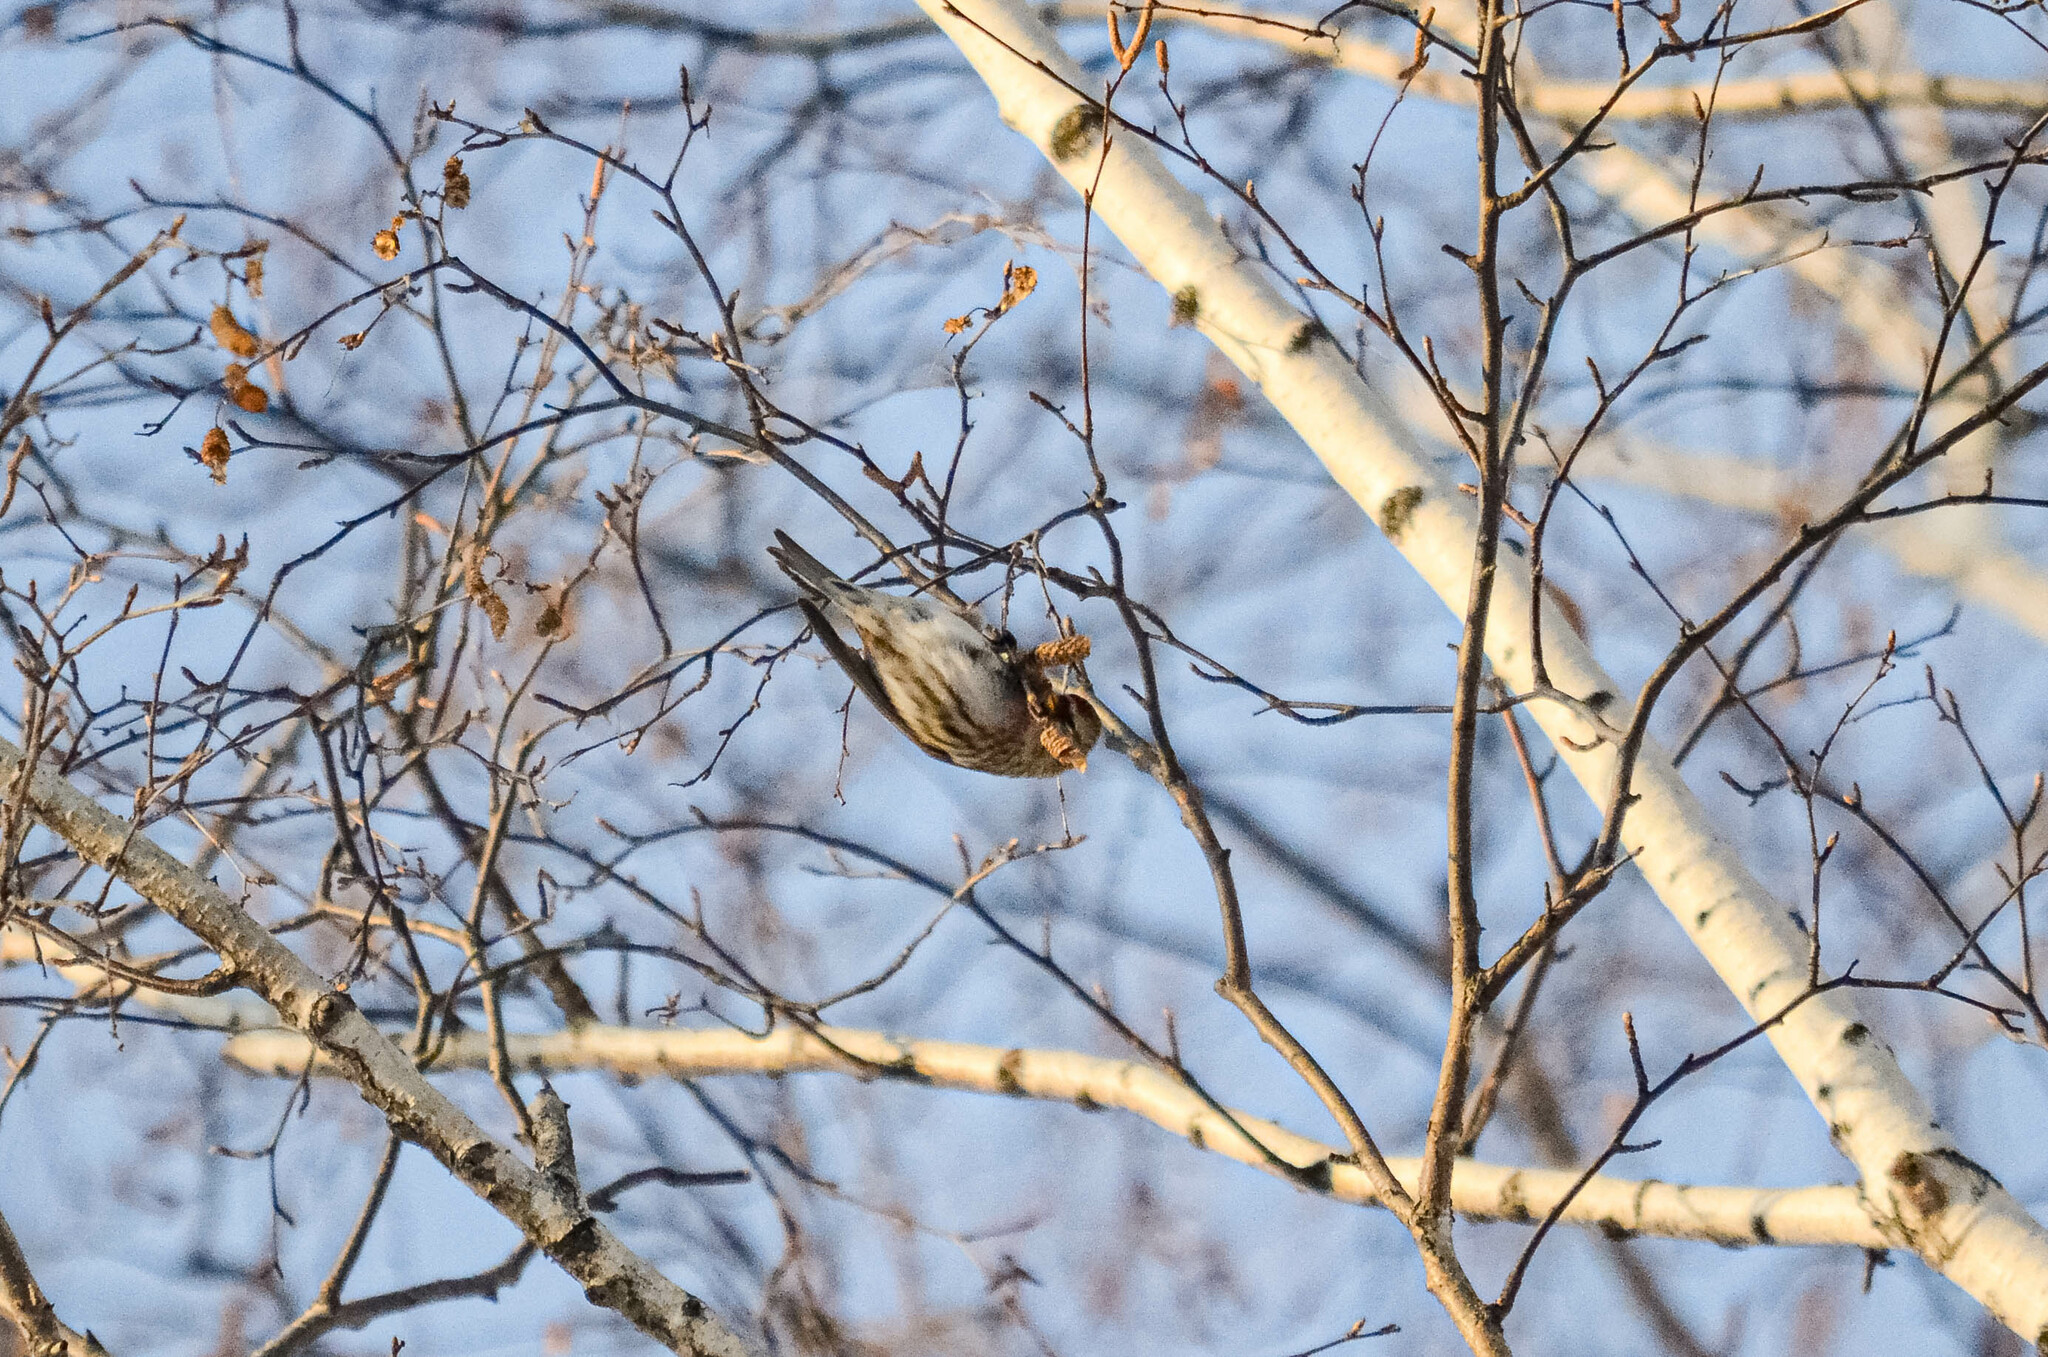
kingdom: Animalia
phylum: Chordata
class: Aves
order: Passeriformes
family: Fringillidae
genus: Acanthis
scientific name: Acanthis flammea
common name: Common redpoll
